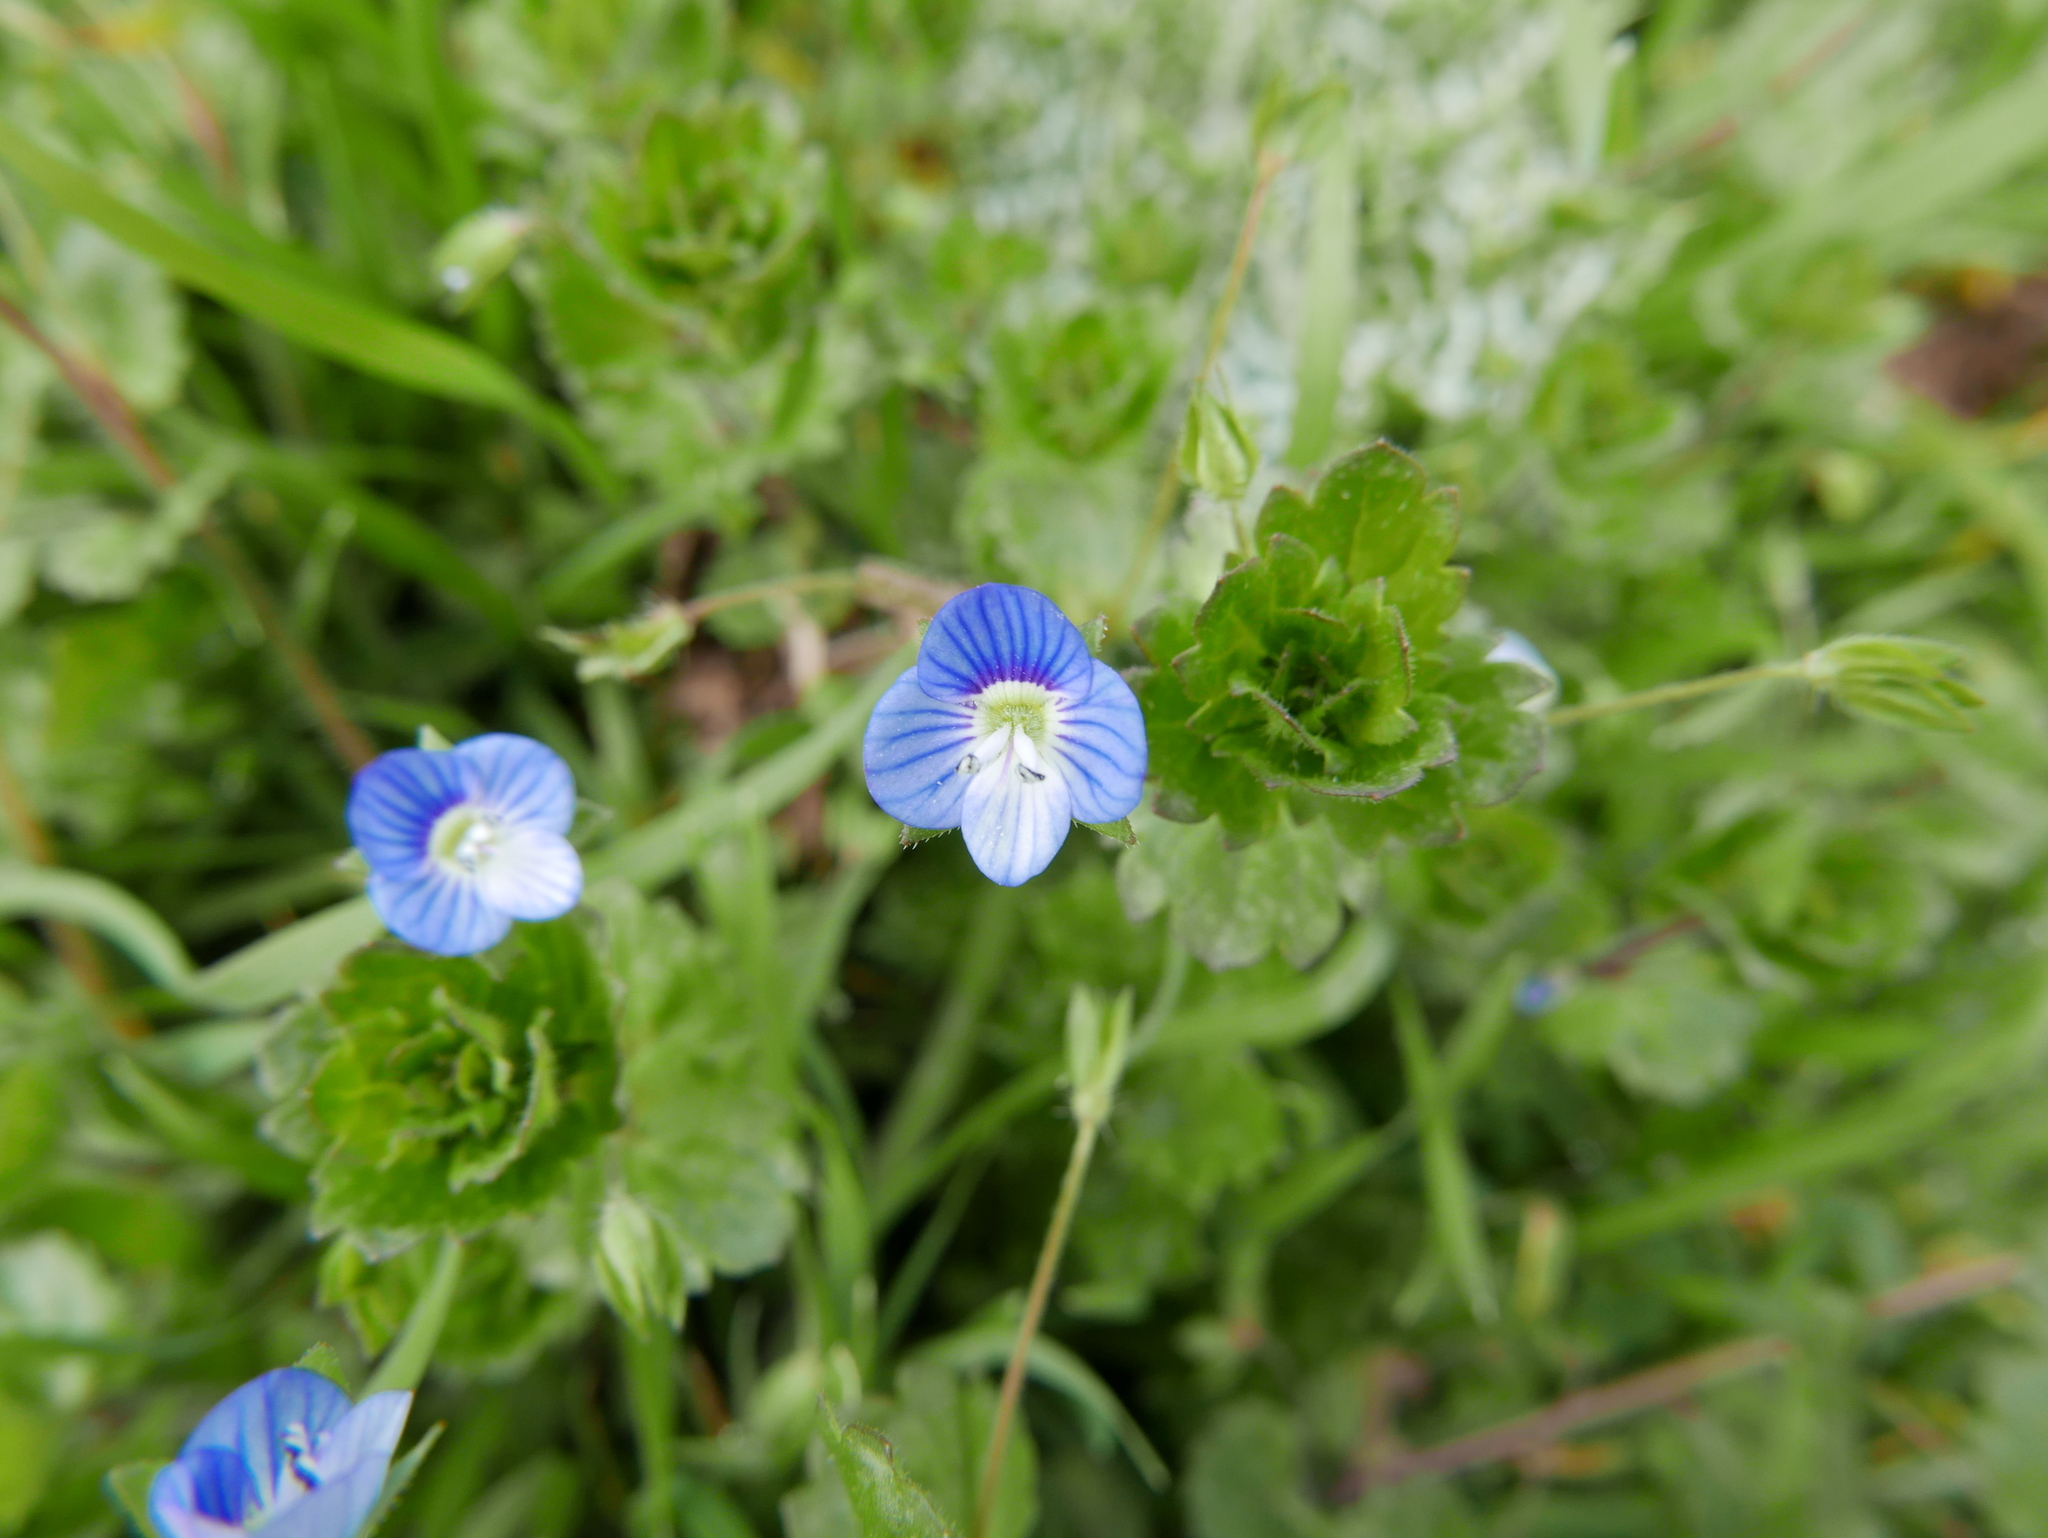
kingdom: Plantae
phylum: Tracheophyta
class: Magnoliopsida
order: Lamiales
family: Plantaginaceae
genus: Veronica
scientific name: Veronica persica
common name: Common field-speedwell
